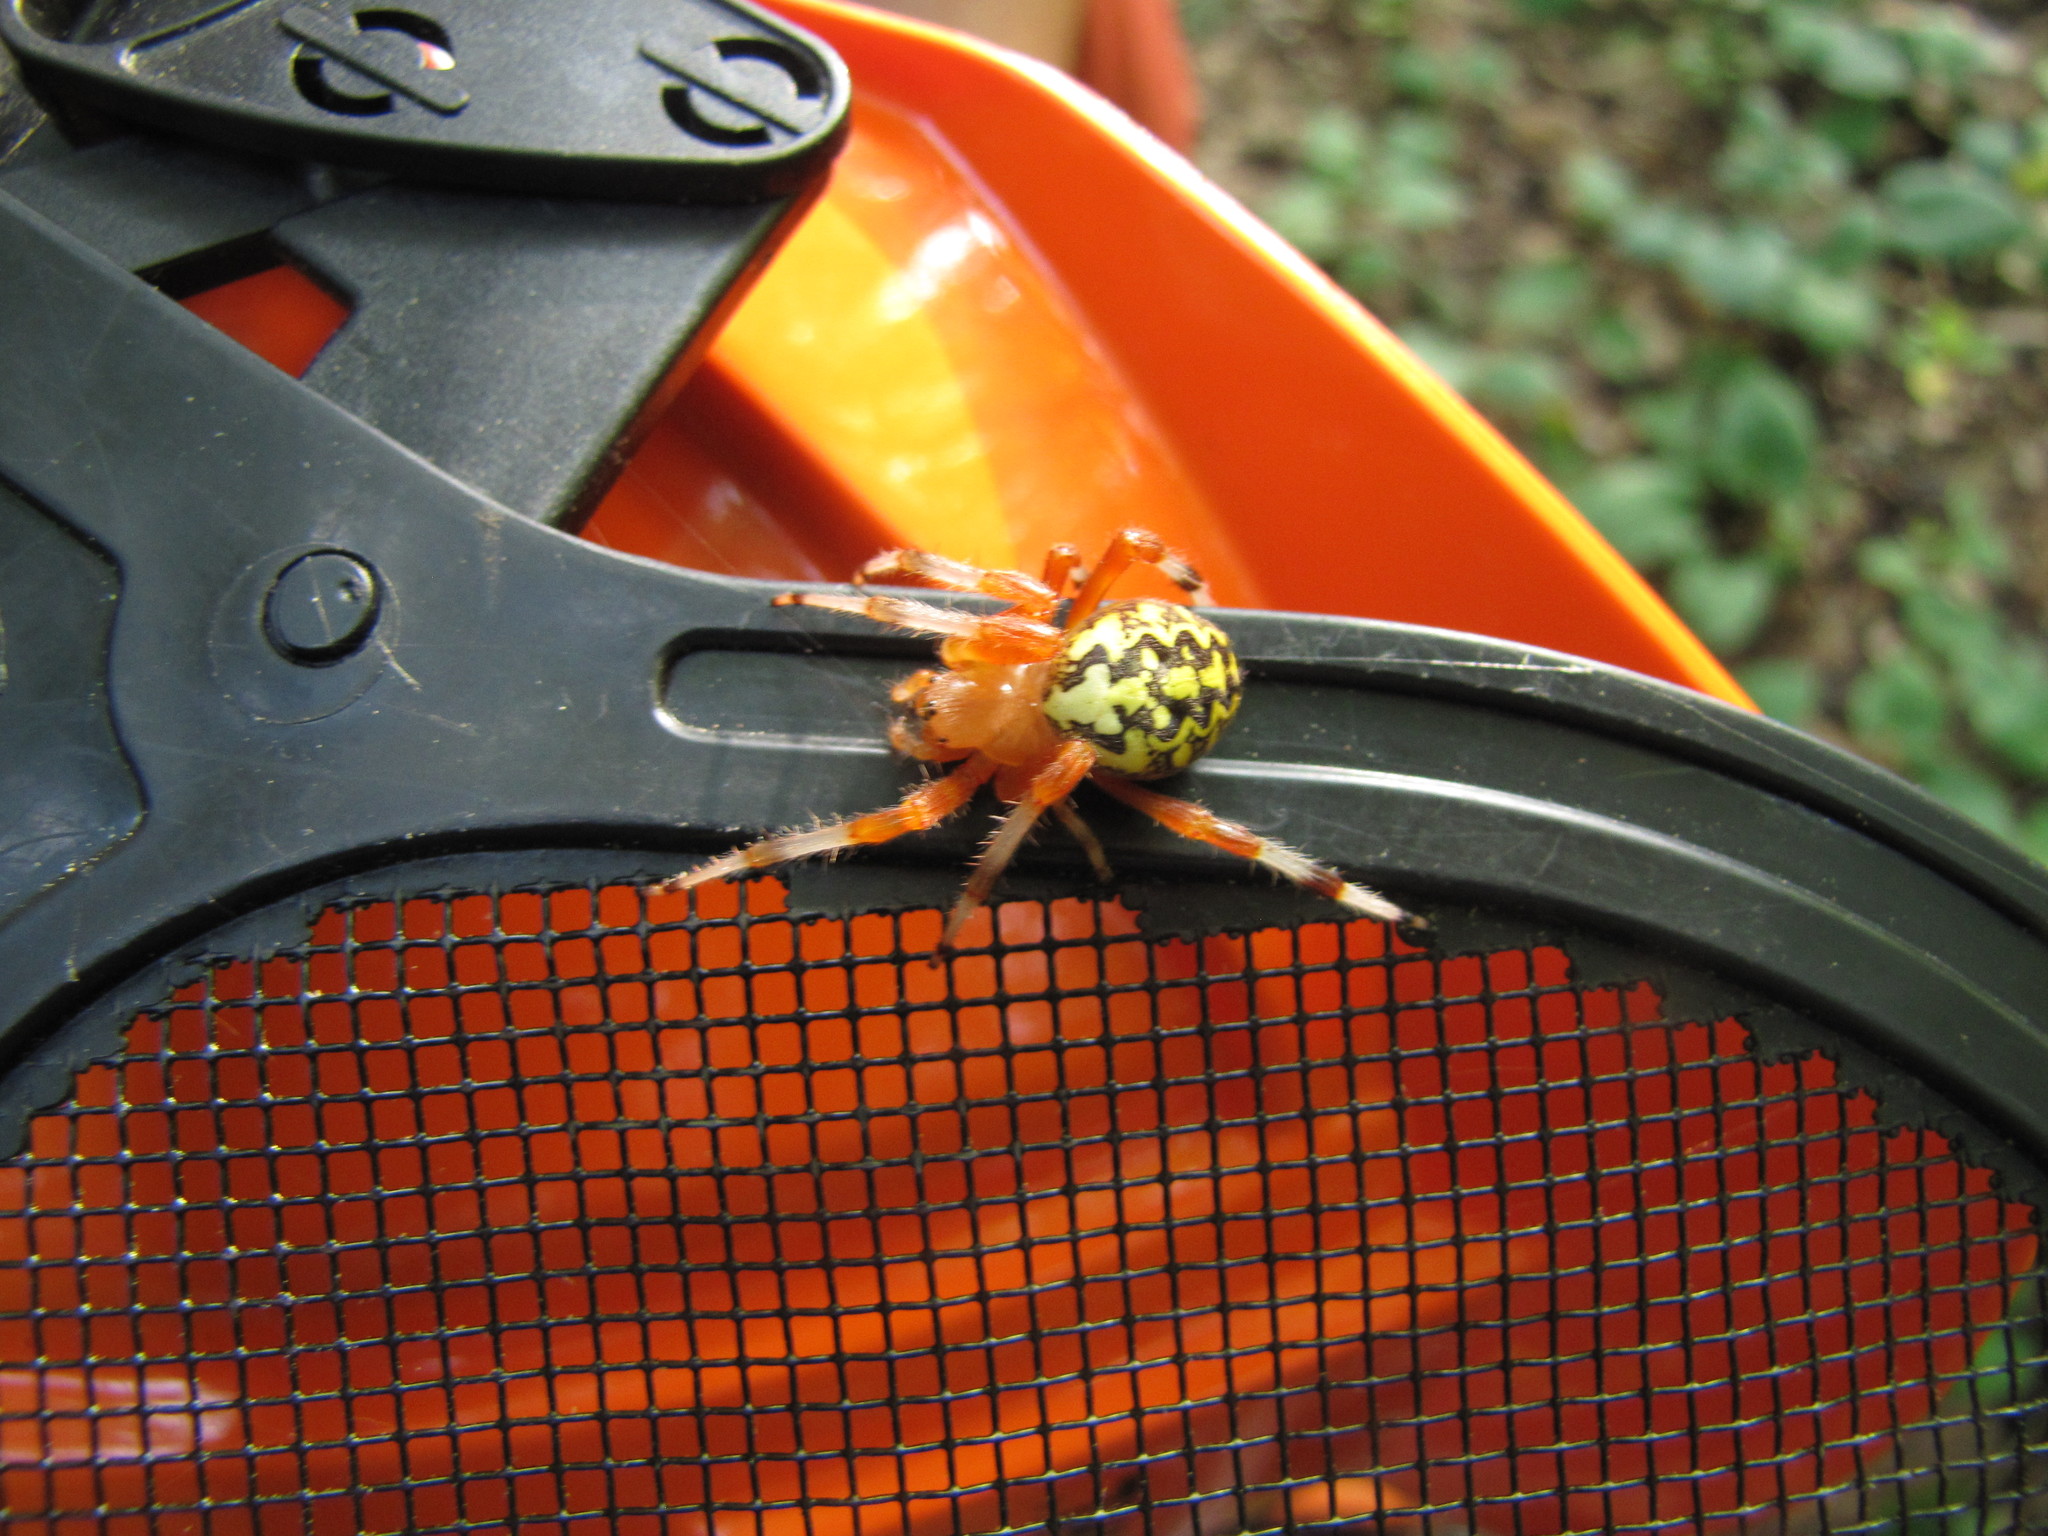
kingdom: Animalia
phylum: Arthropoda
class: Arachnida
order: Araneae
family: Araneidae
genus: Araneus
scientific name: Araneus marmoreus
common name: Marbled orbweaver
